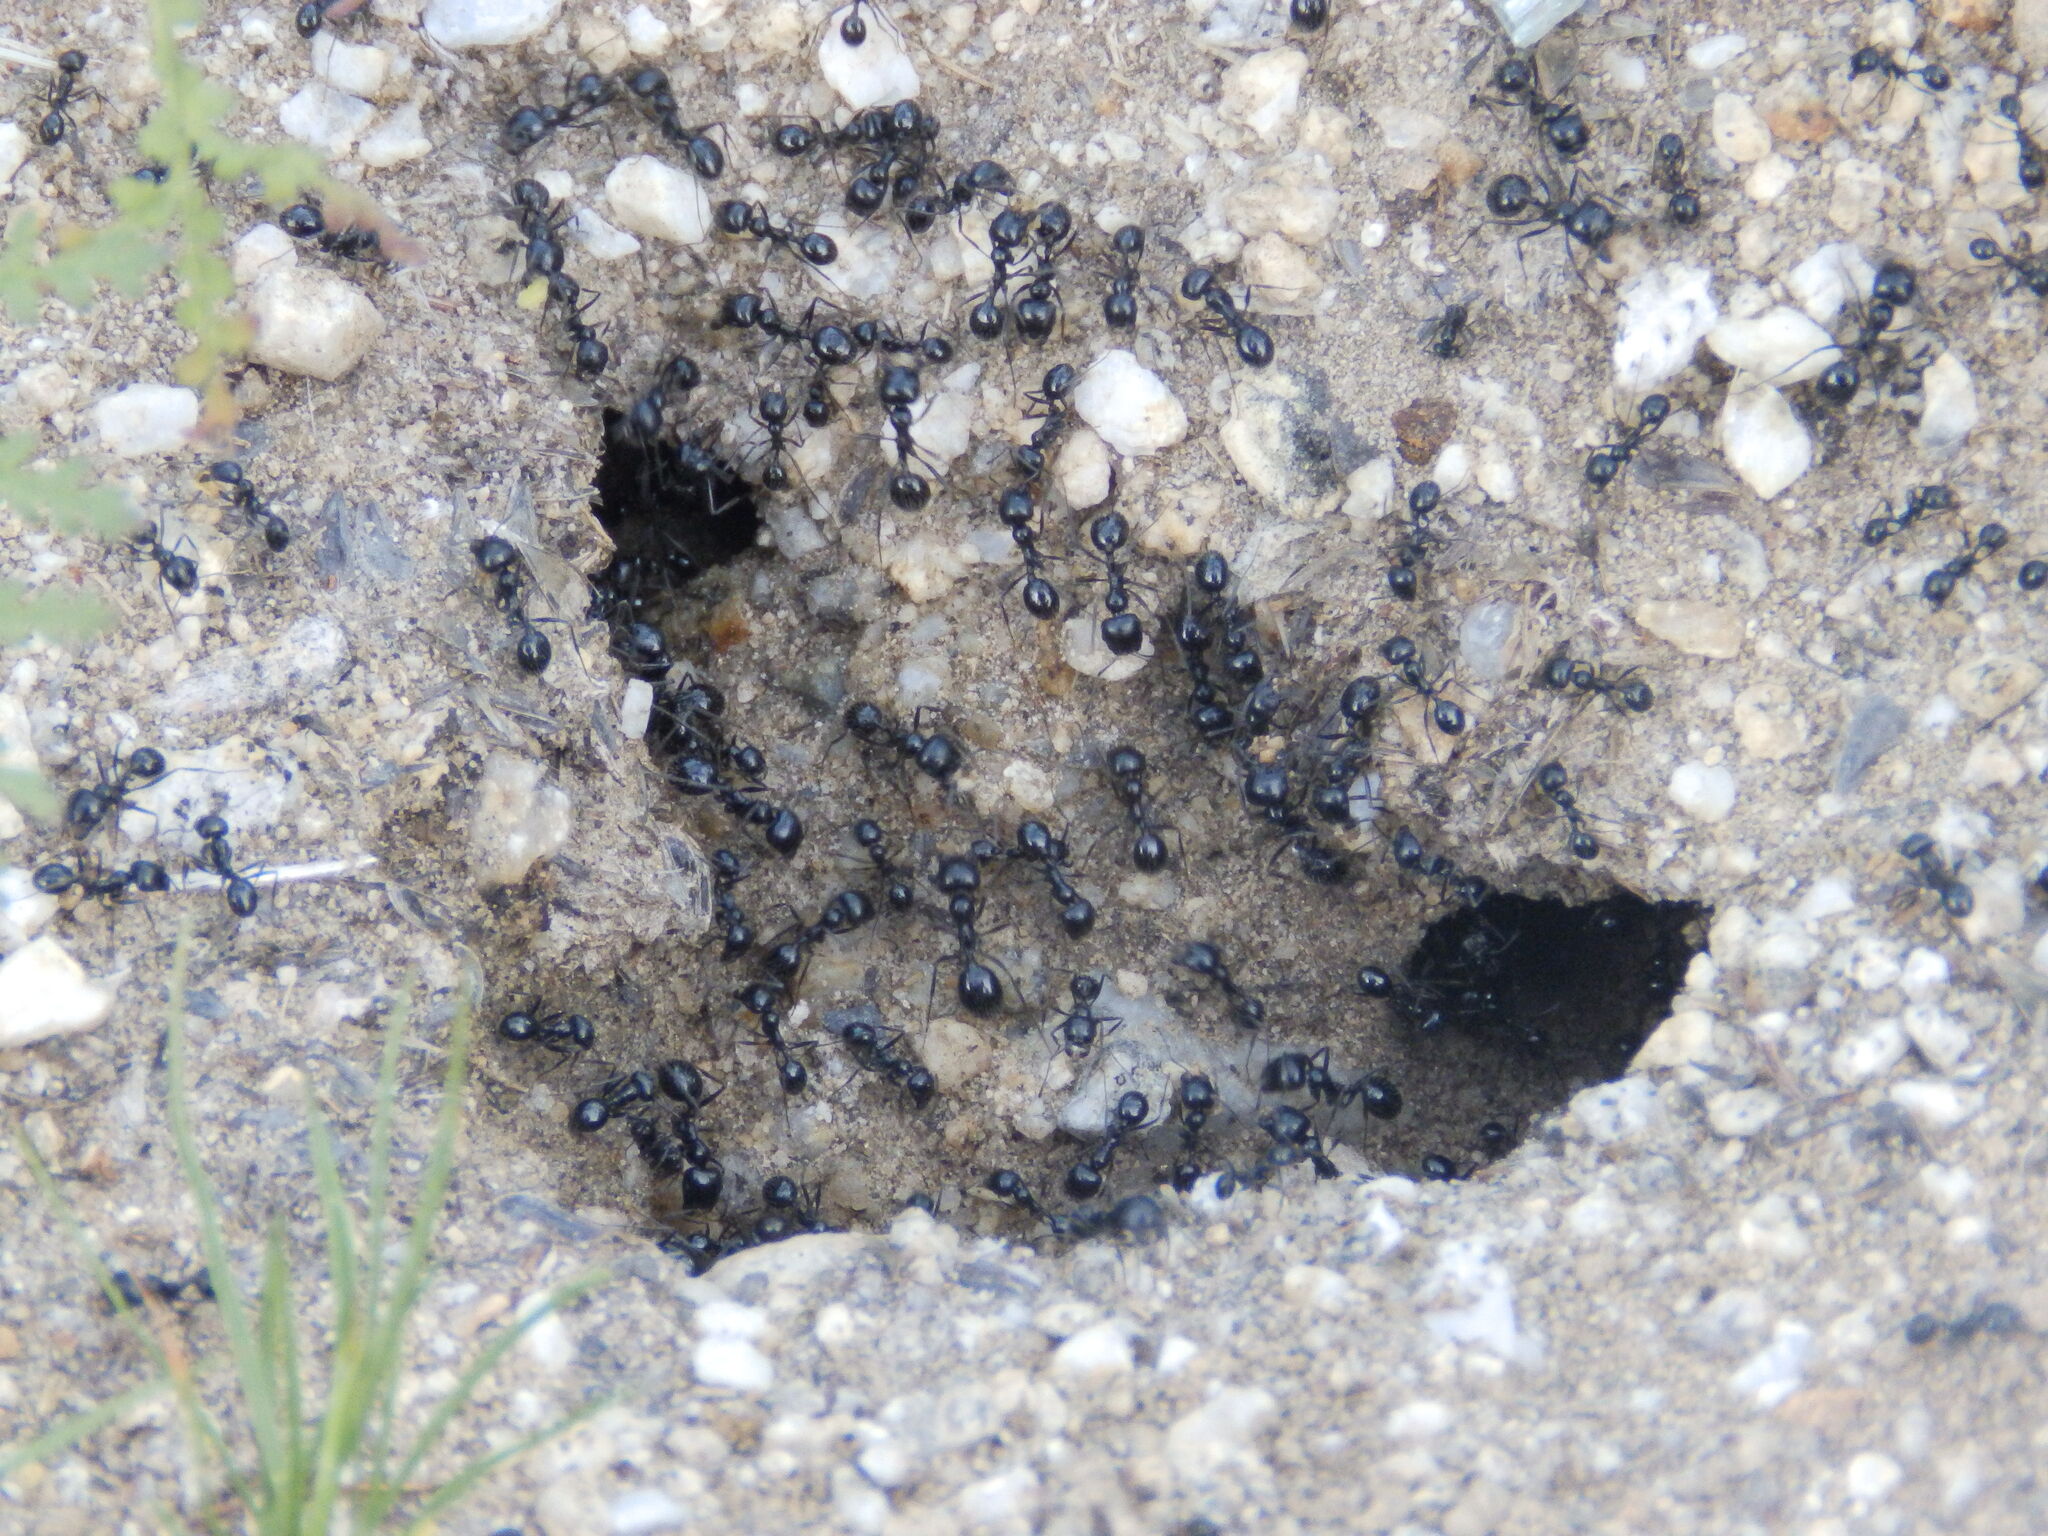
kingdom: Animalia
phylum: Arthropoda
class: Insecta
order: Hymenoptera
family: Formicidae
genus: Messor
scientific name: Messor pergandei
